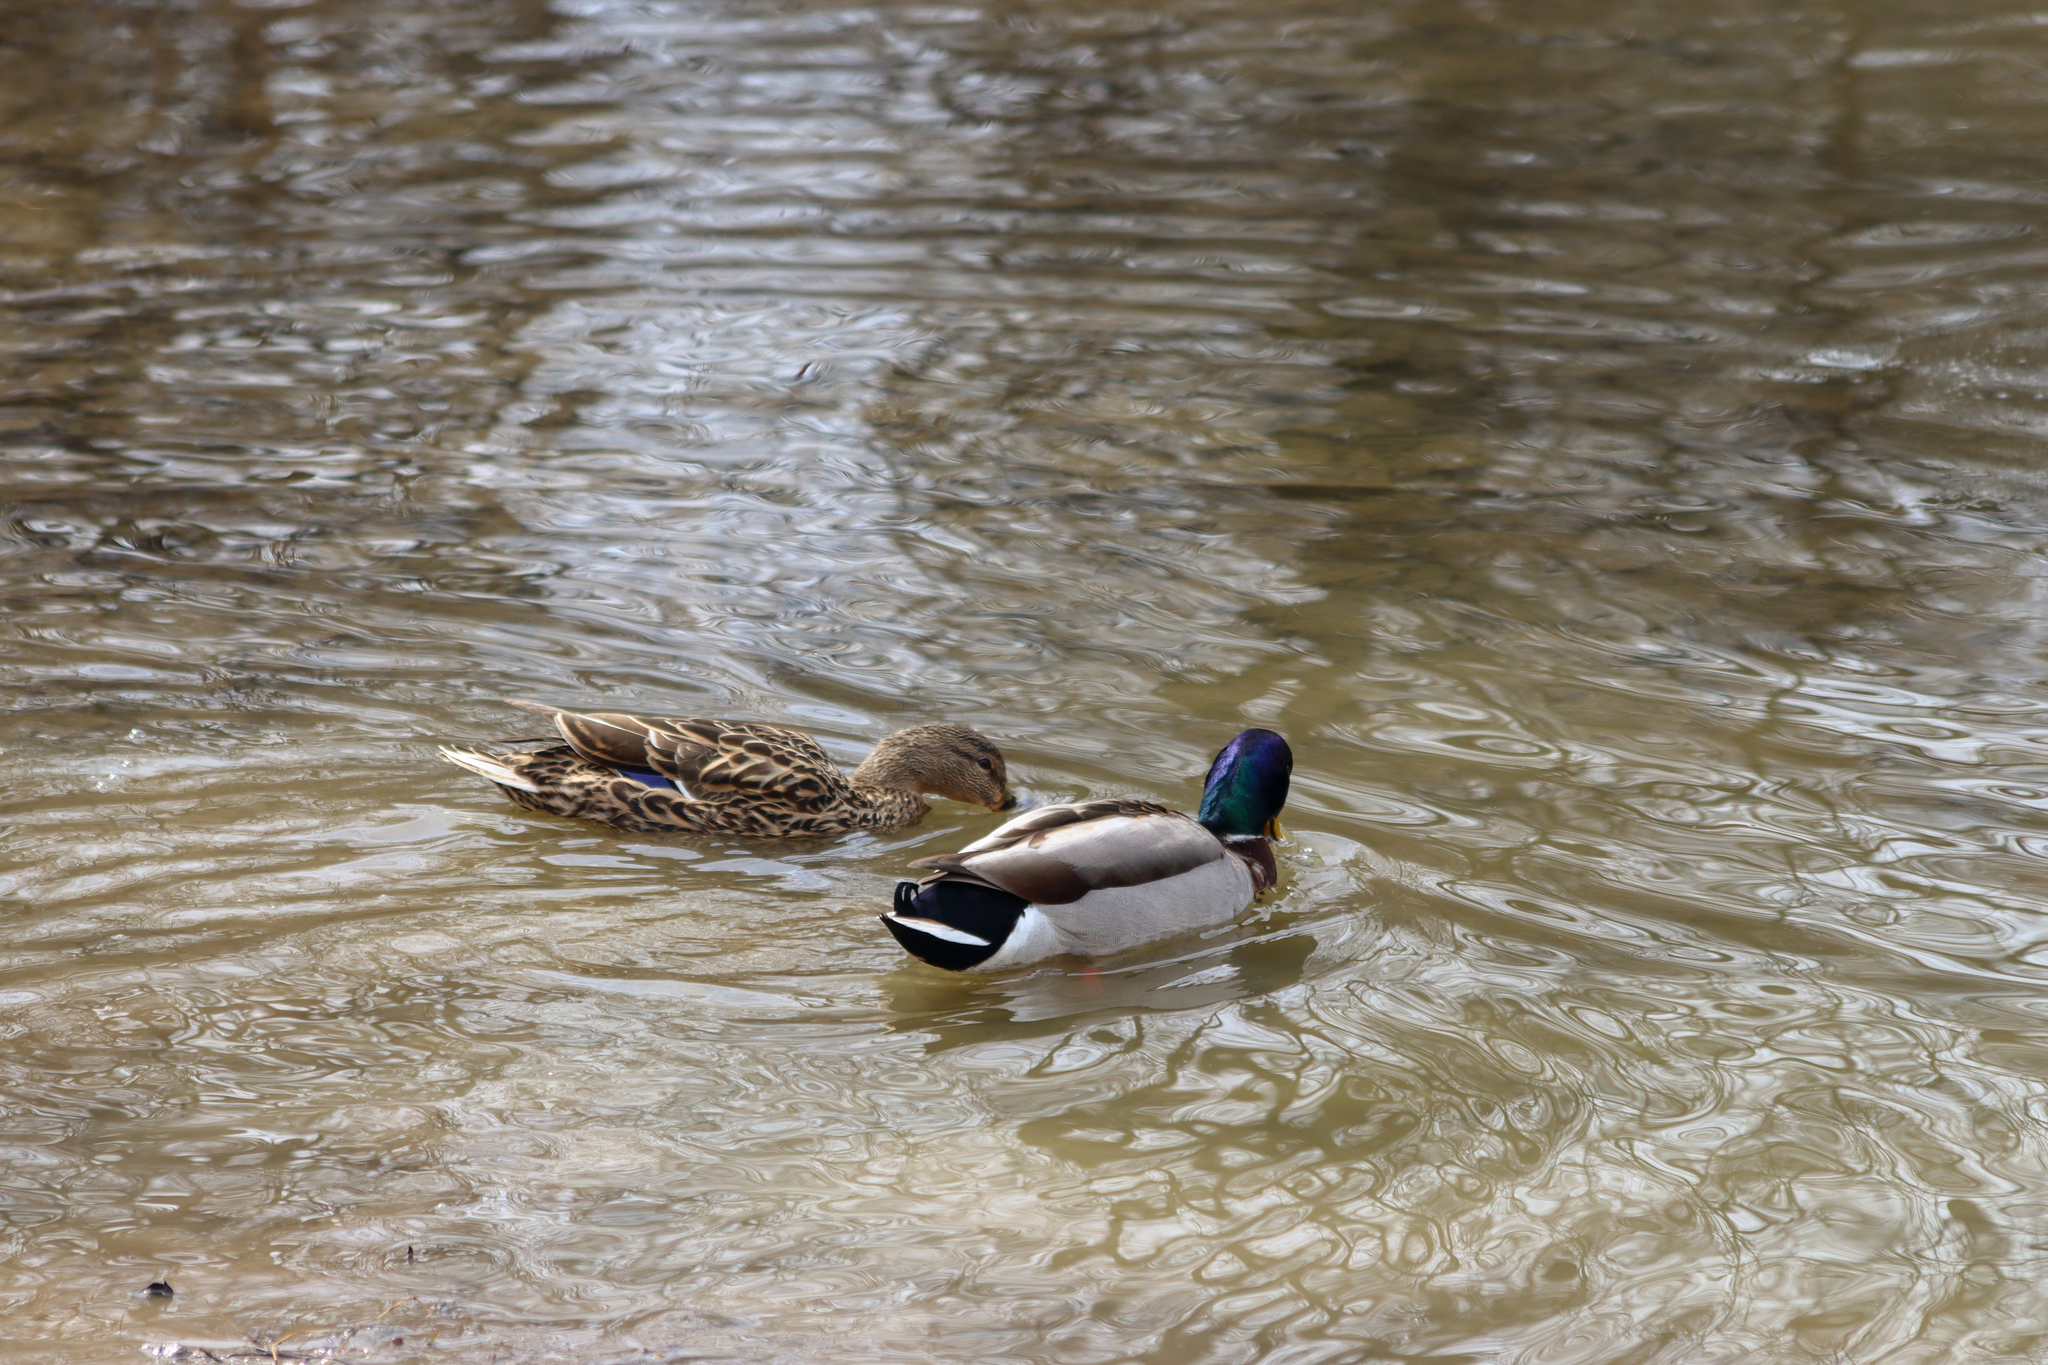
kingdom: Animalia
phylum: Chordata
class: Aves
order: Anseriformes
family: Anatidae
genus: Anas
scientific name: Anas platyrhynchos
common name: Mallard
